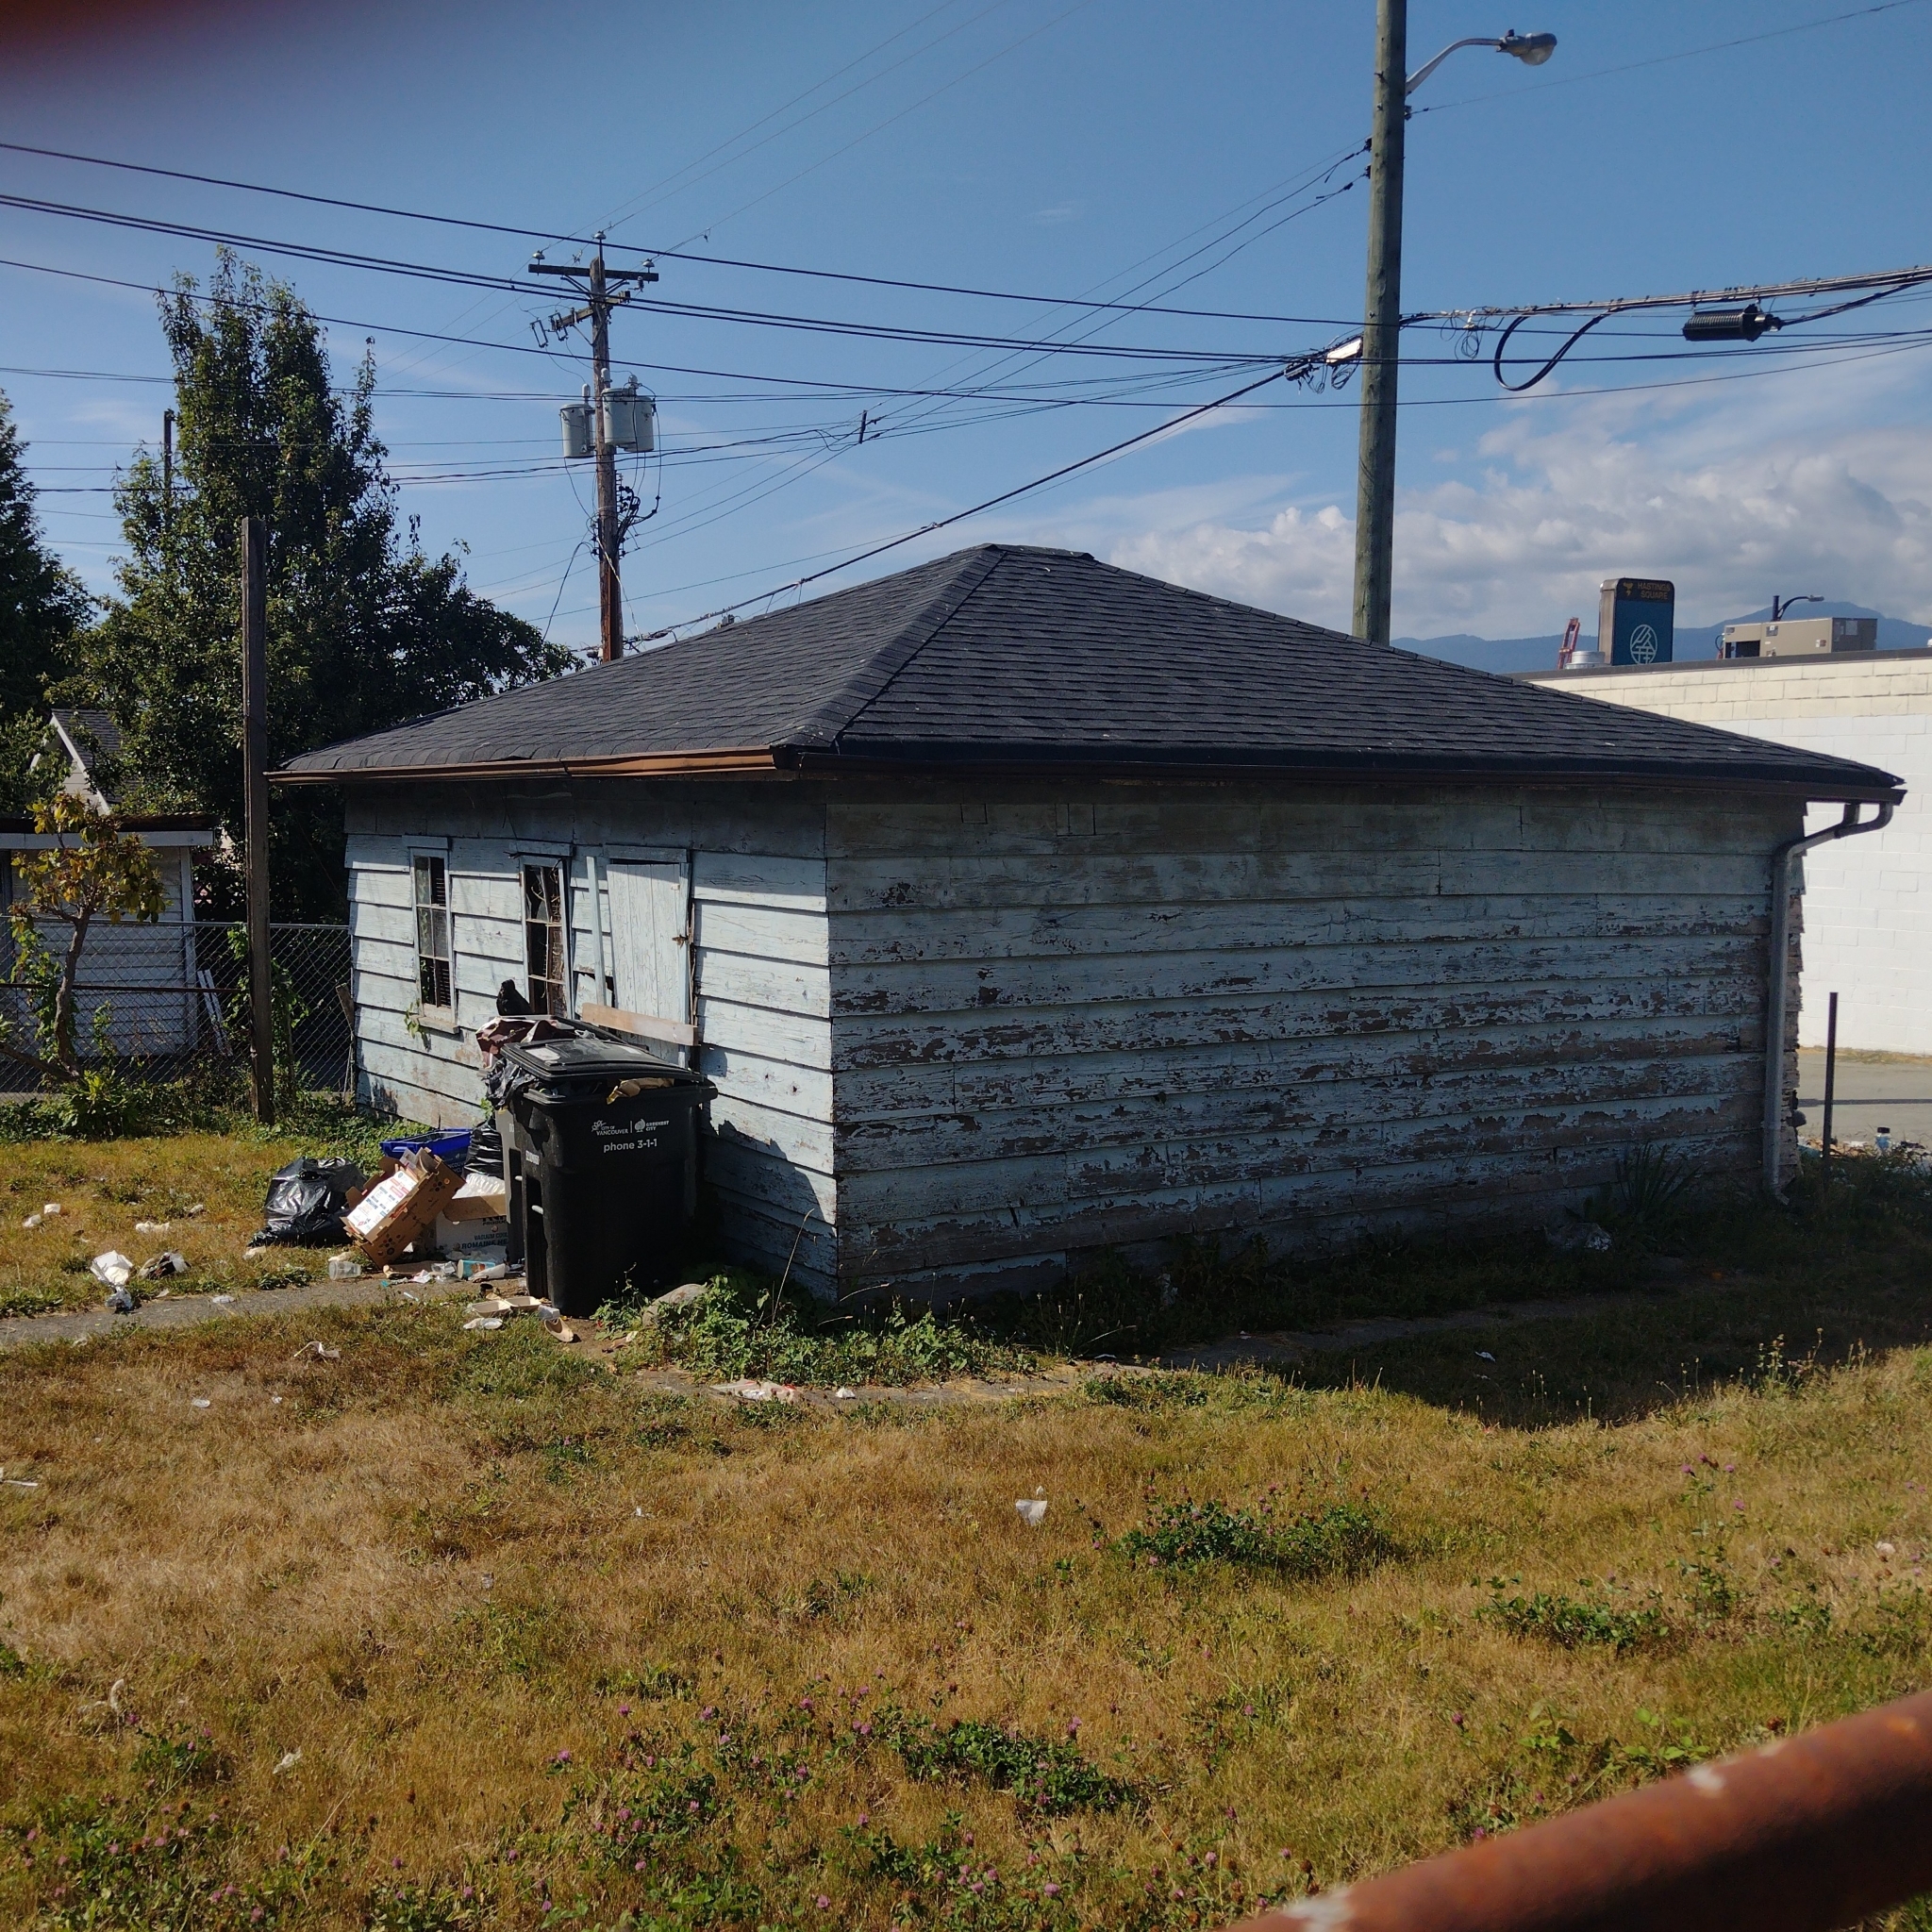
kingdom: Animalia
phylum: Chordata
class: Aves
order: Passeriformes
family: Corvidae
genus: Corvus
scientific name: Corvus brachyrhynchos
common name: American crow
